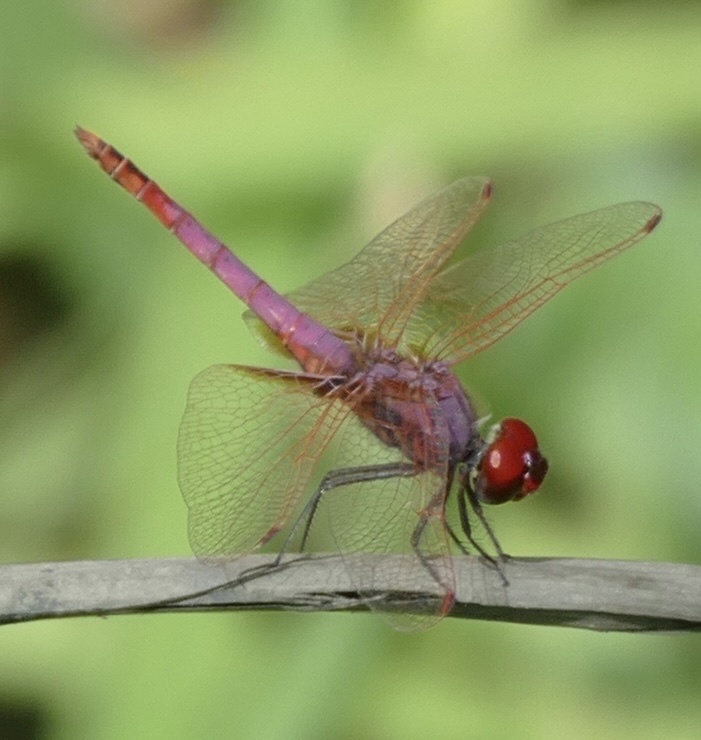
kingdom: Animalia
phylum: Arthropoda
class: Insecta
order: Odonata
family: Libellulidae
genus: Trithemis
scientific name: Trithemis annulata
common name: Violet dropwing
